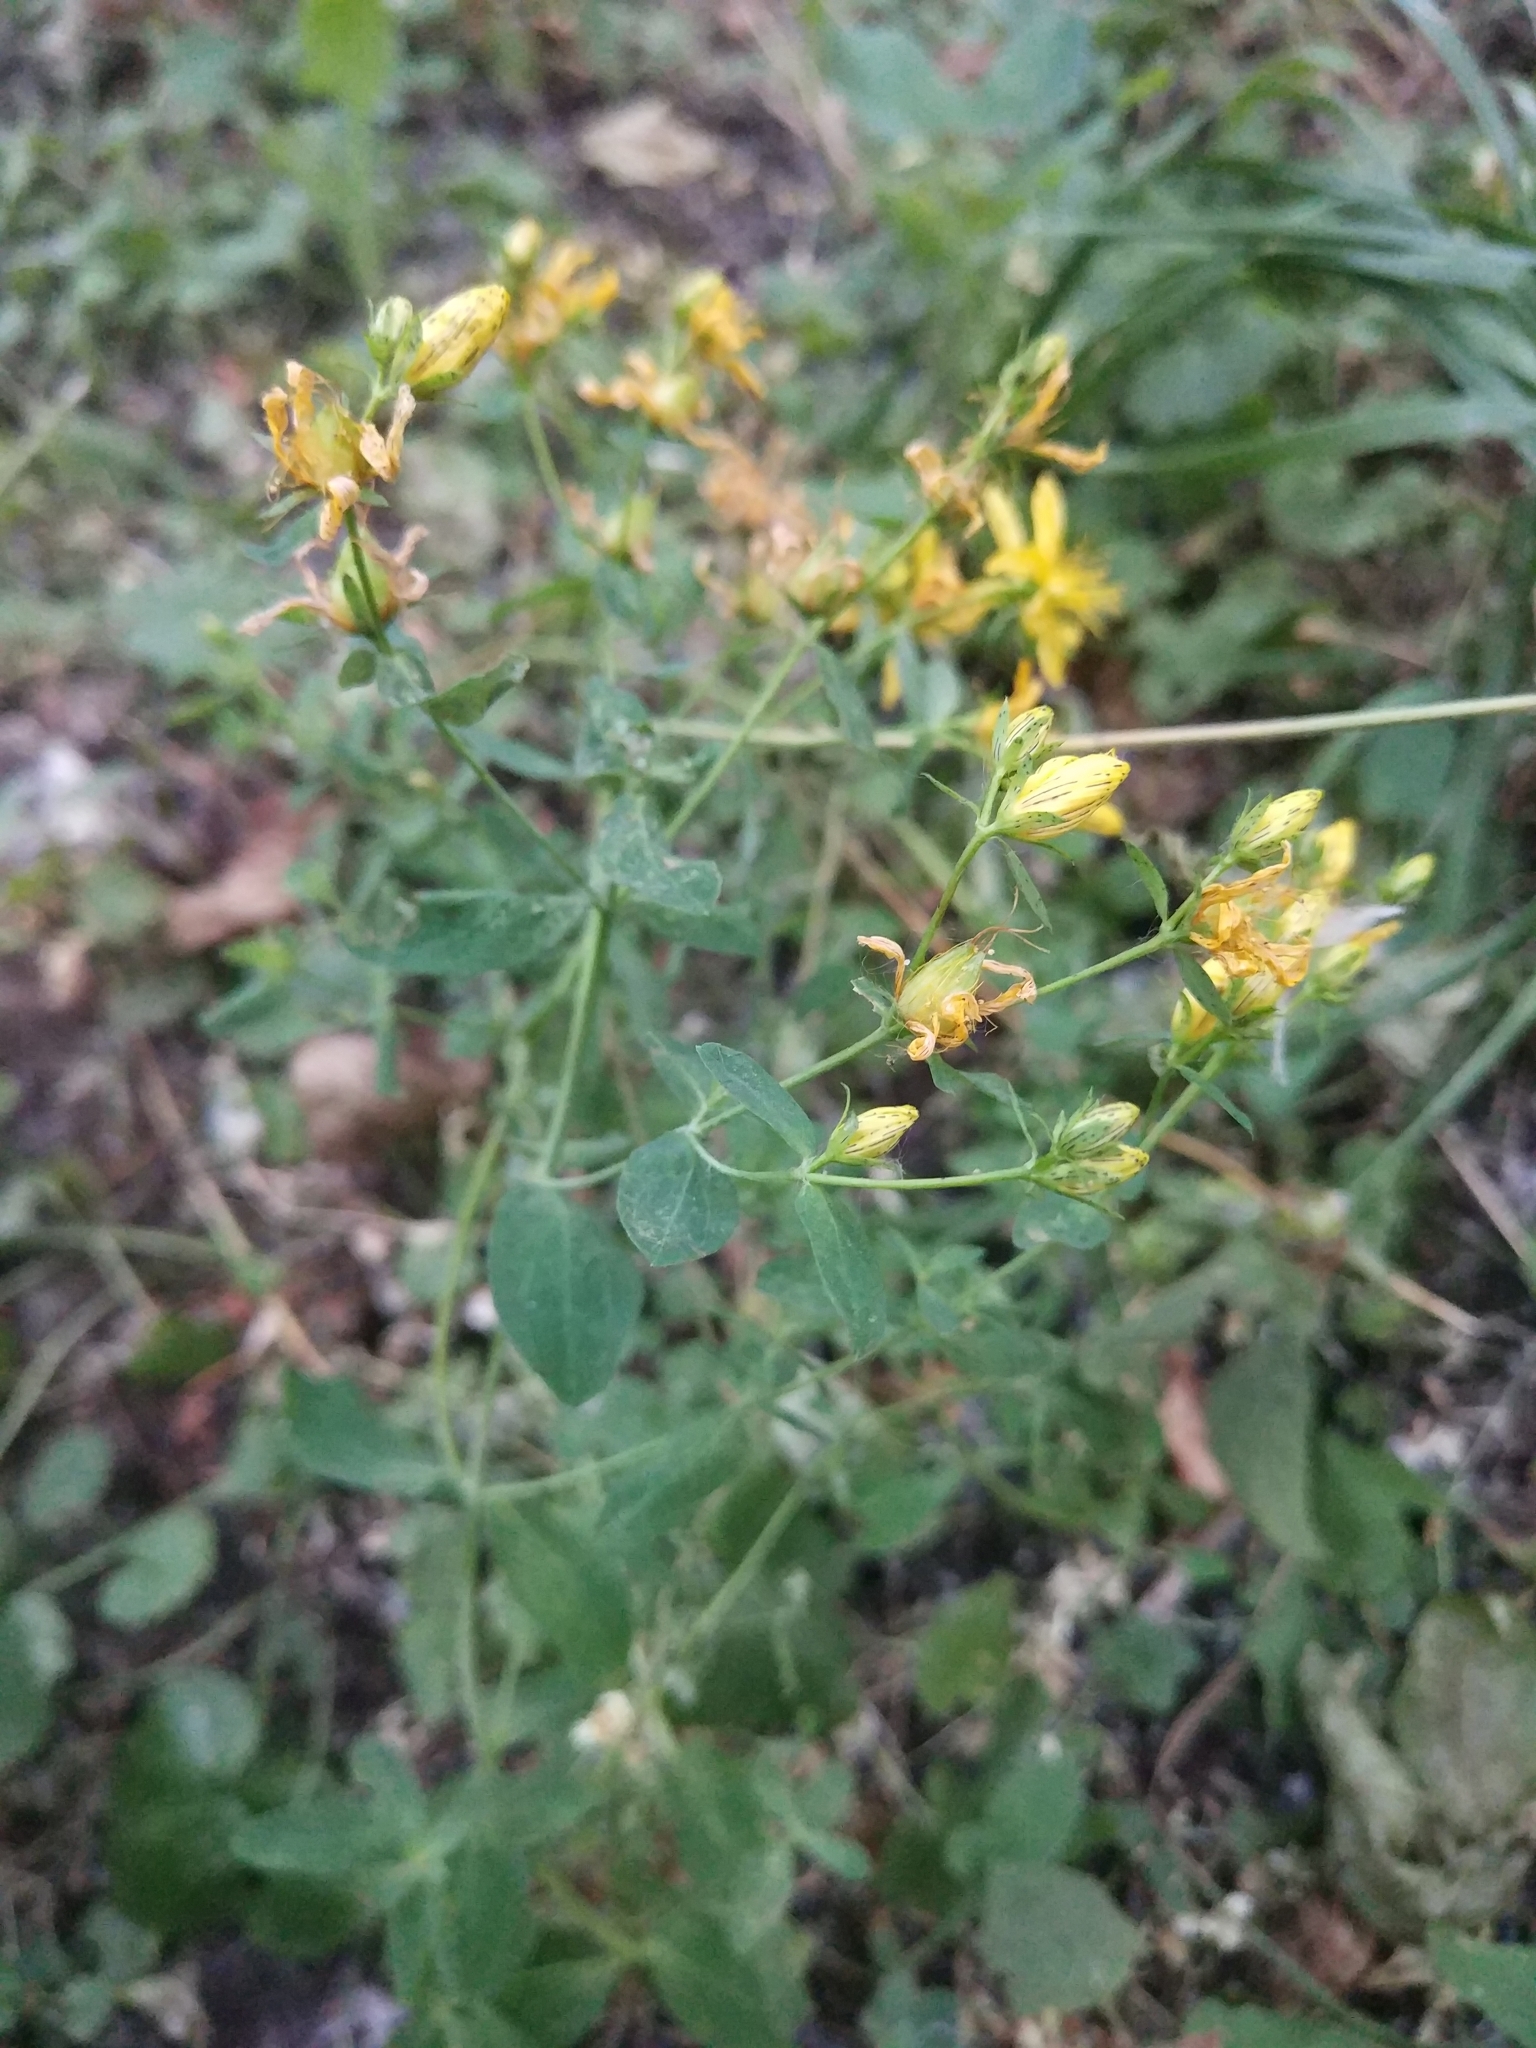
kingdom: Plantae
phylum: Tracheophyta
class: Magnoliopsida
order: Malpighiales
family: Hypericaceae
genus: Hypericum
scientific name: Hypericum perforatum
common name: Common st. johnswort
